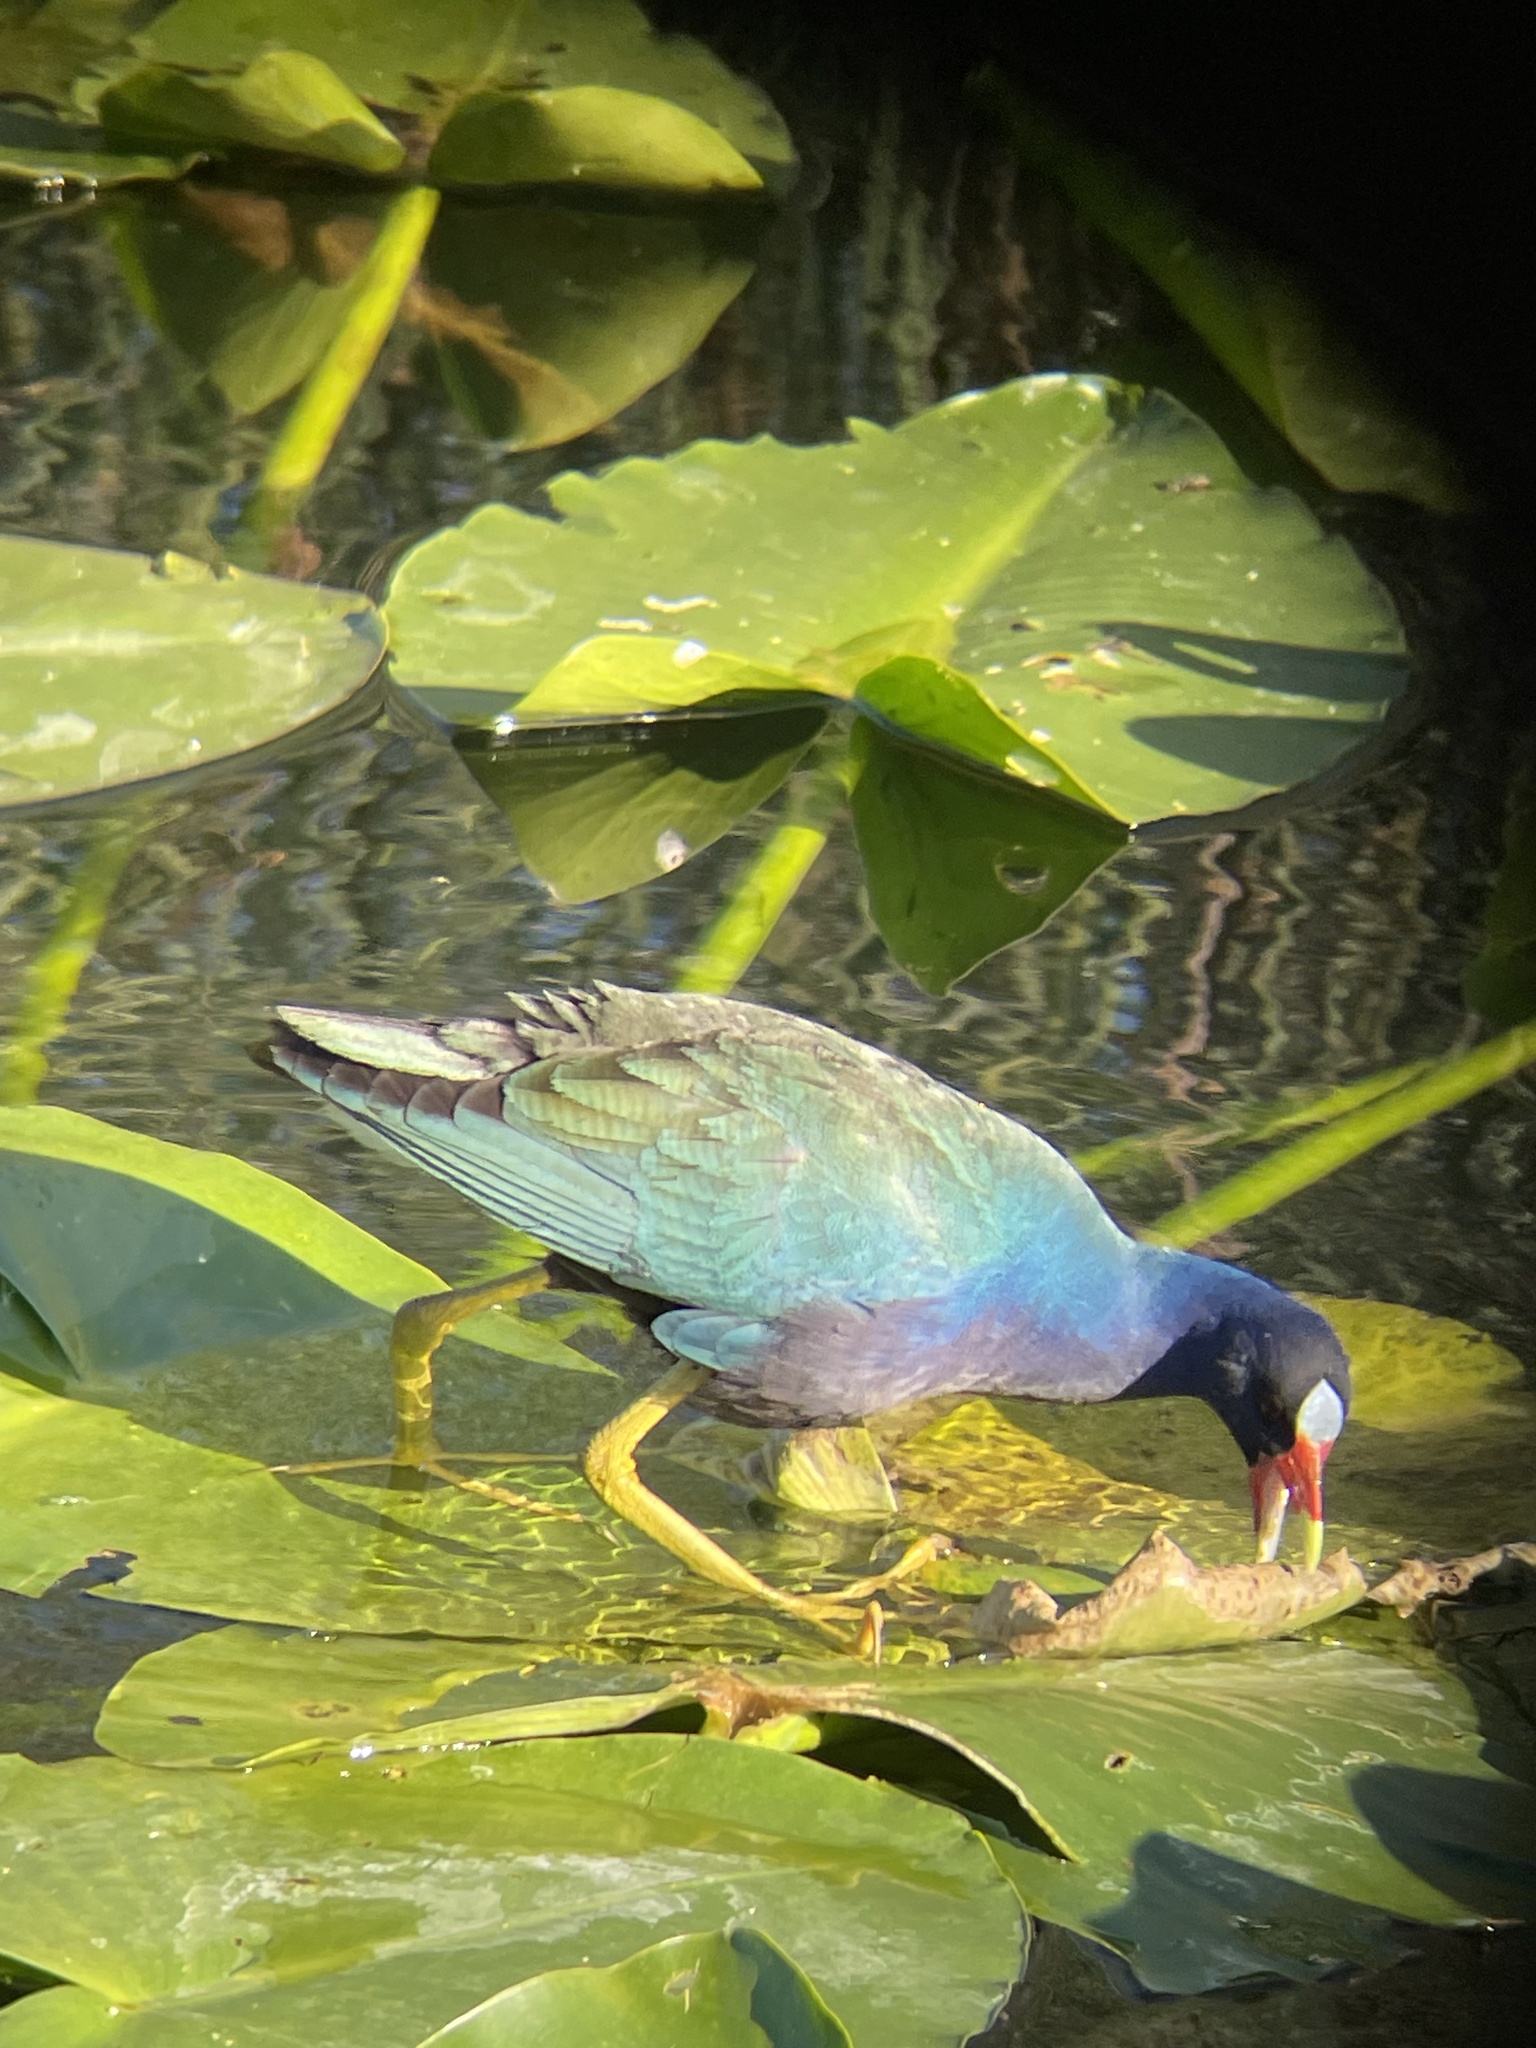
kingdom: Animalia
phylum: Chordata
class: Aves
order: Gruiformes
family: Rallidae
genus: Porphyrio
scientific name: Porphyrio martinica
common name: Purple gallinule
